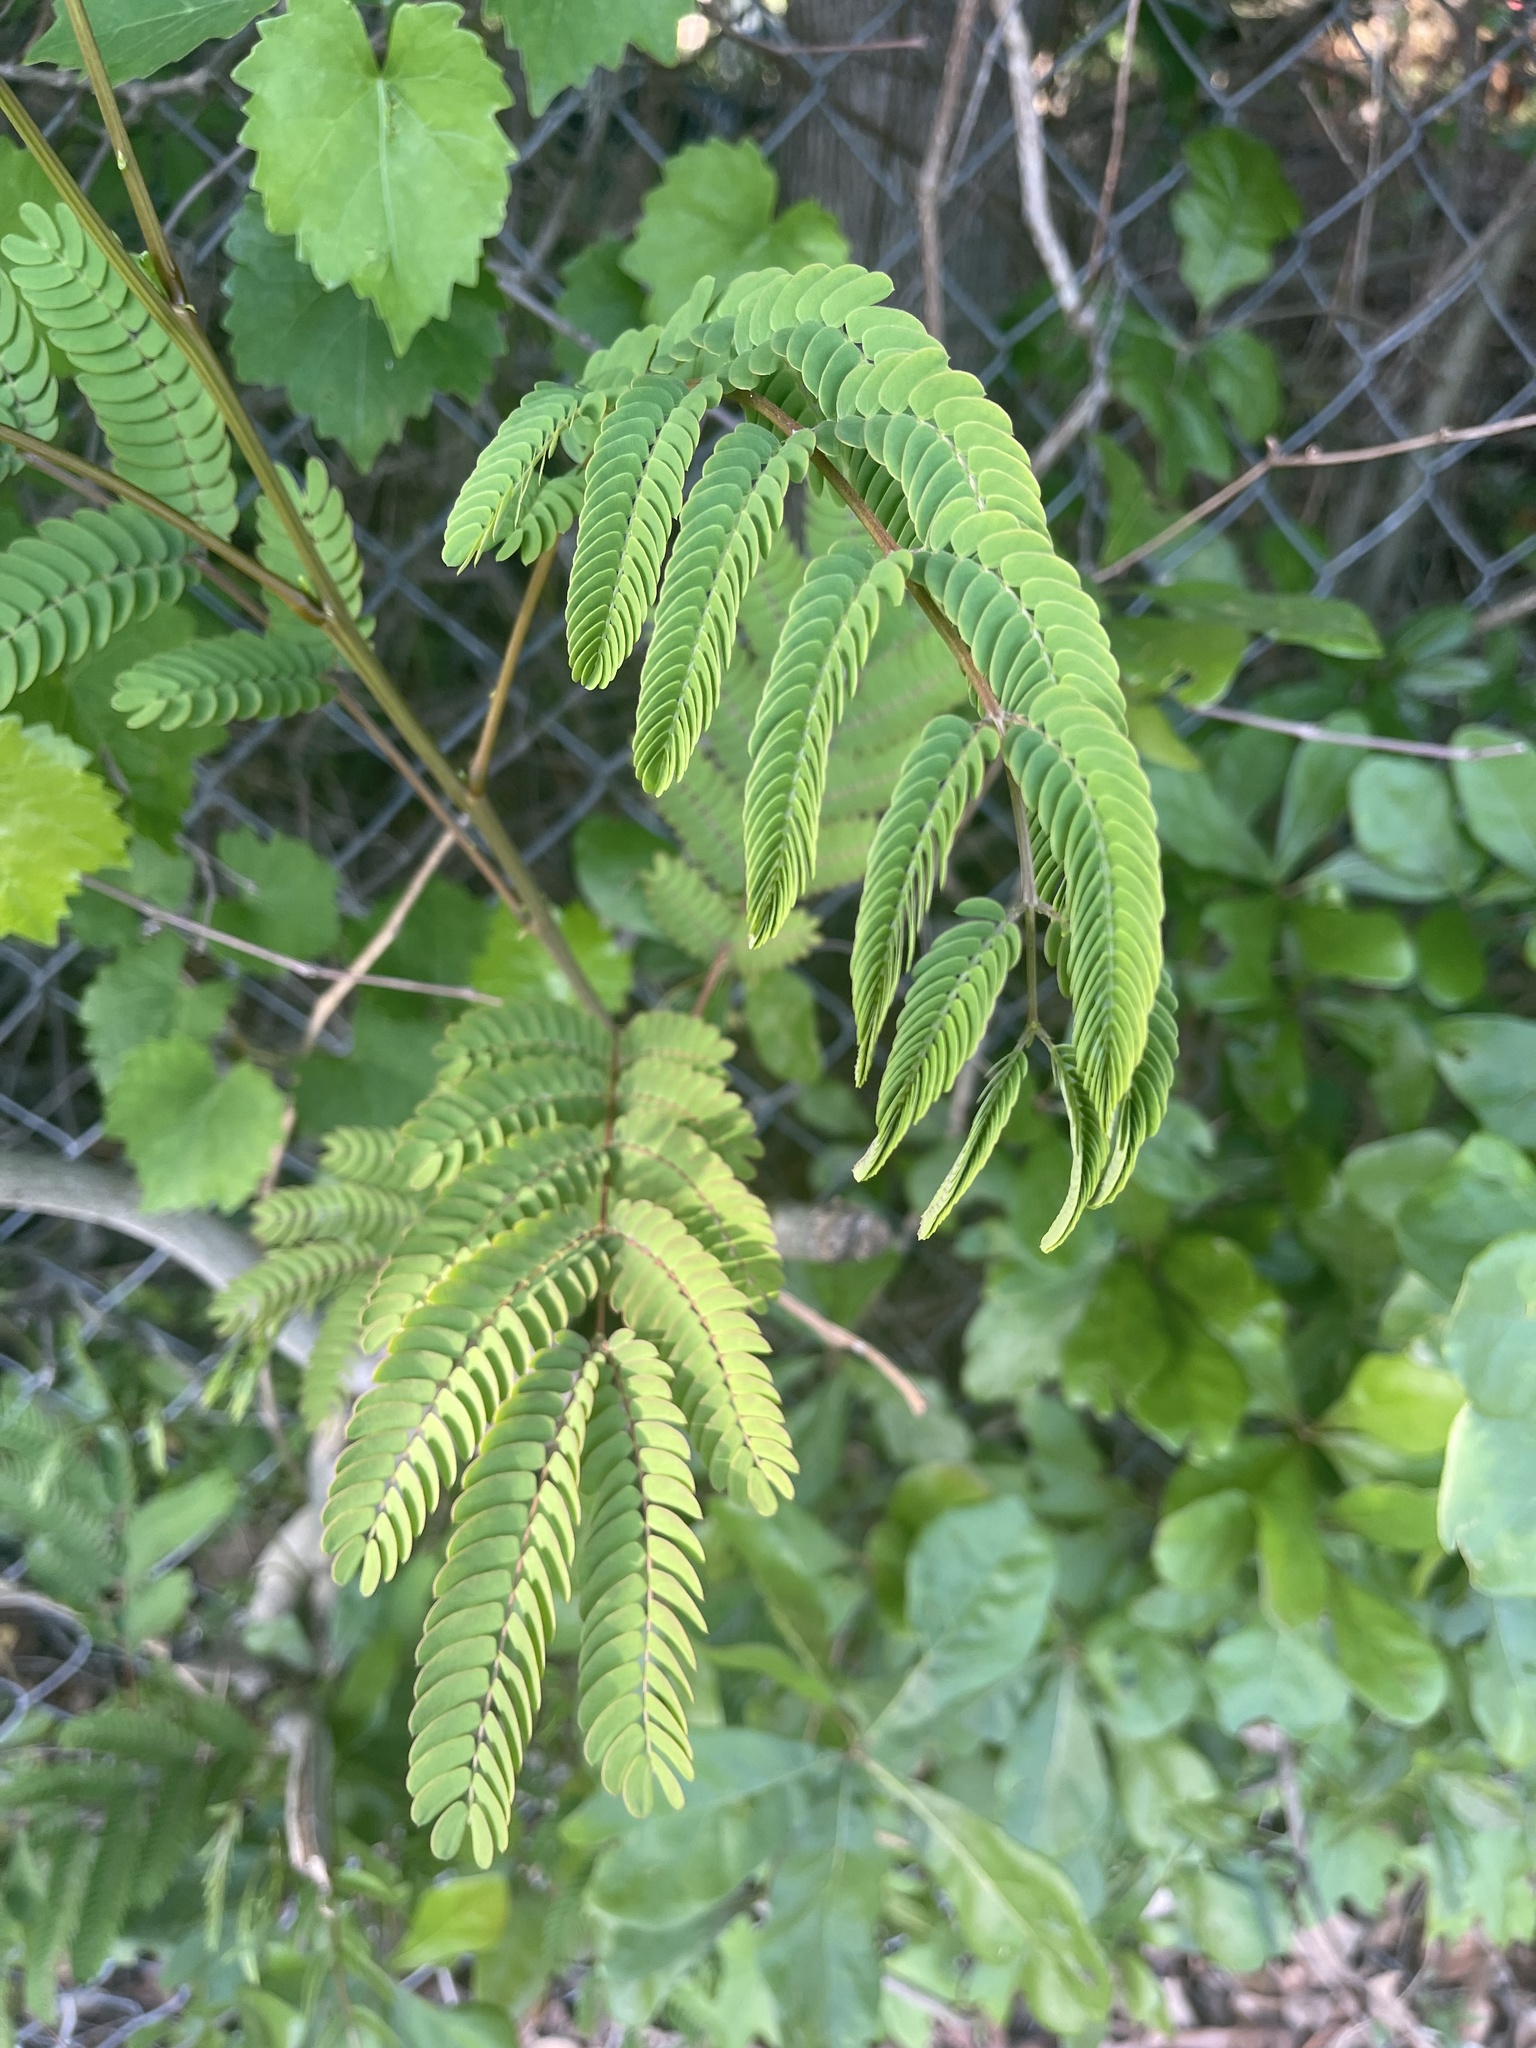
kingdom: Plantae
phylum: Tracheophyta
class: Magnoliopsida
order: Fabales
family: Fabaceae
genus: Albizia
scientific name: Albizia julibrissin
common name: Silktree
